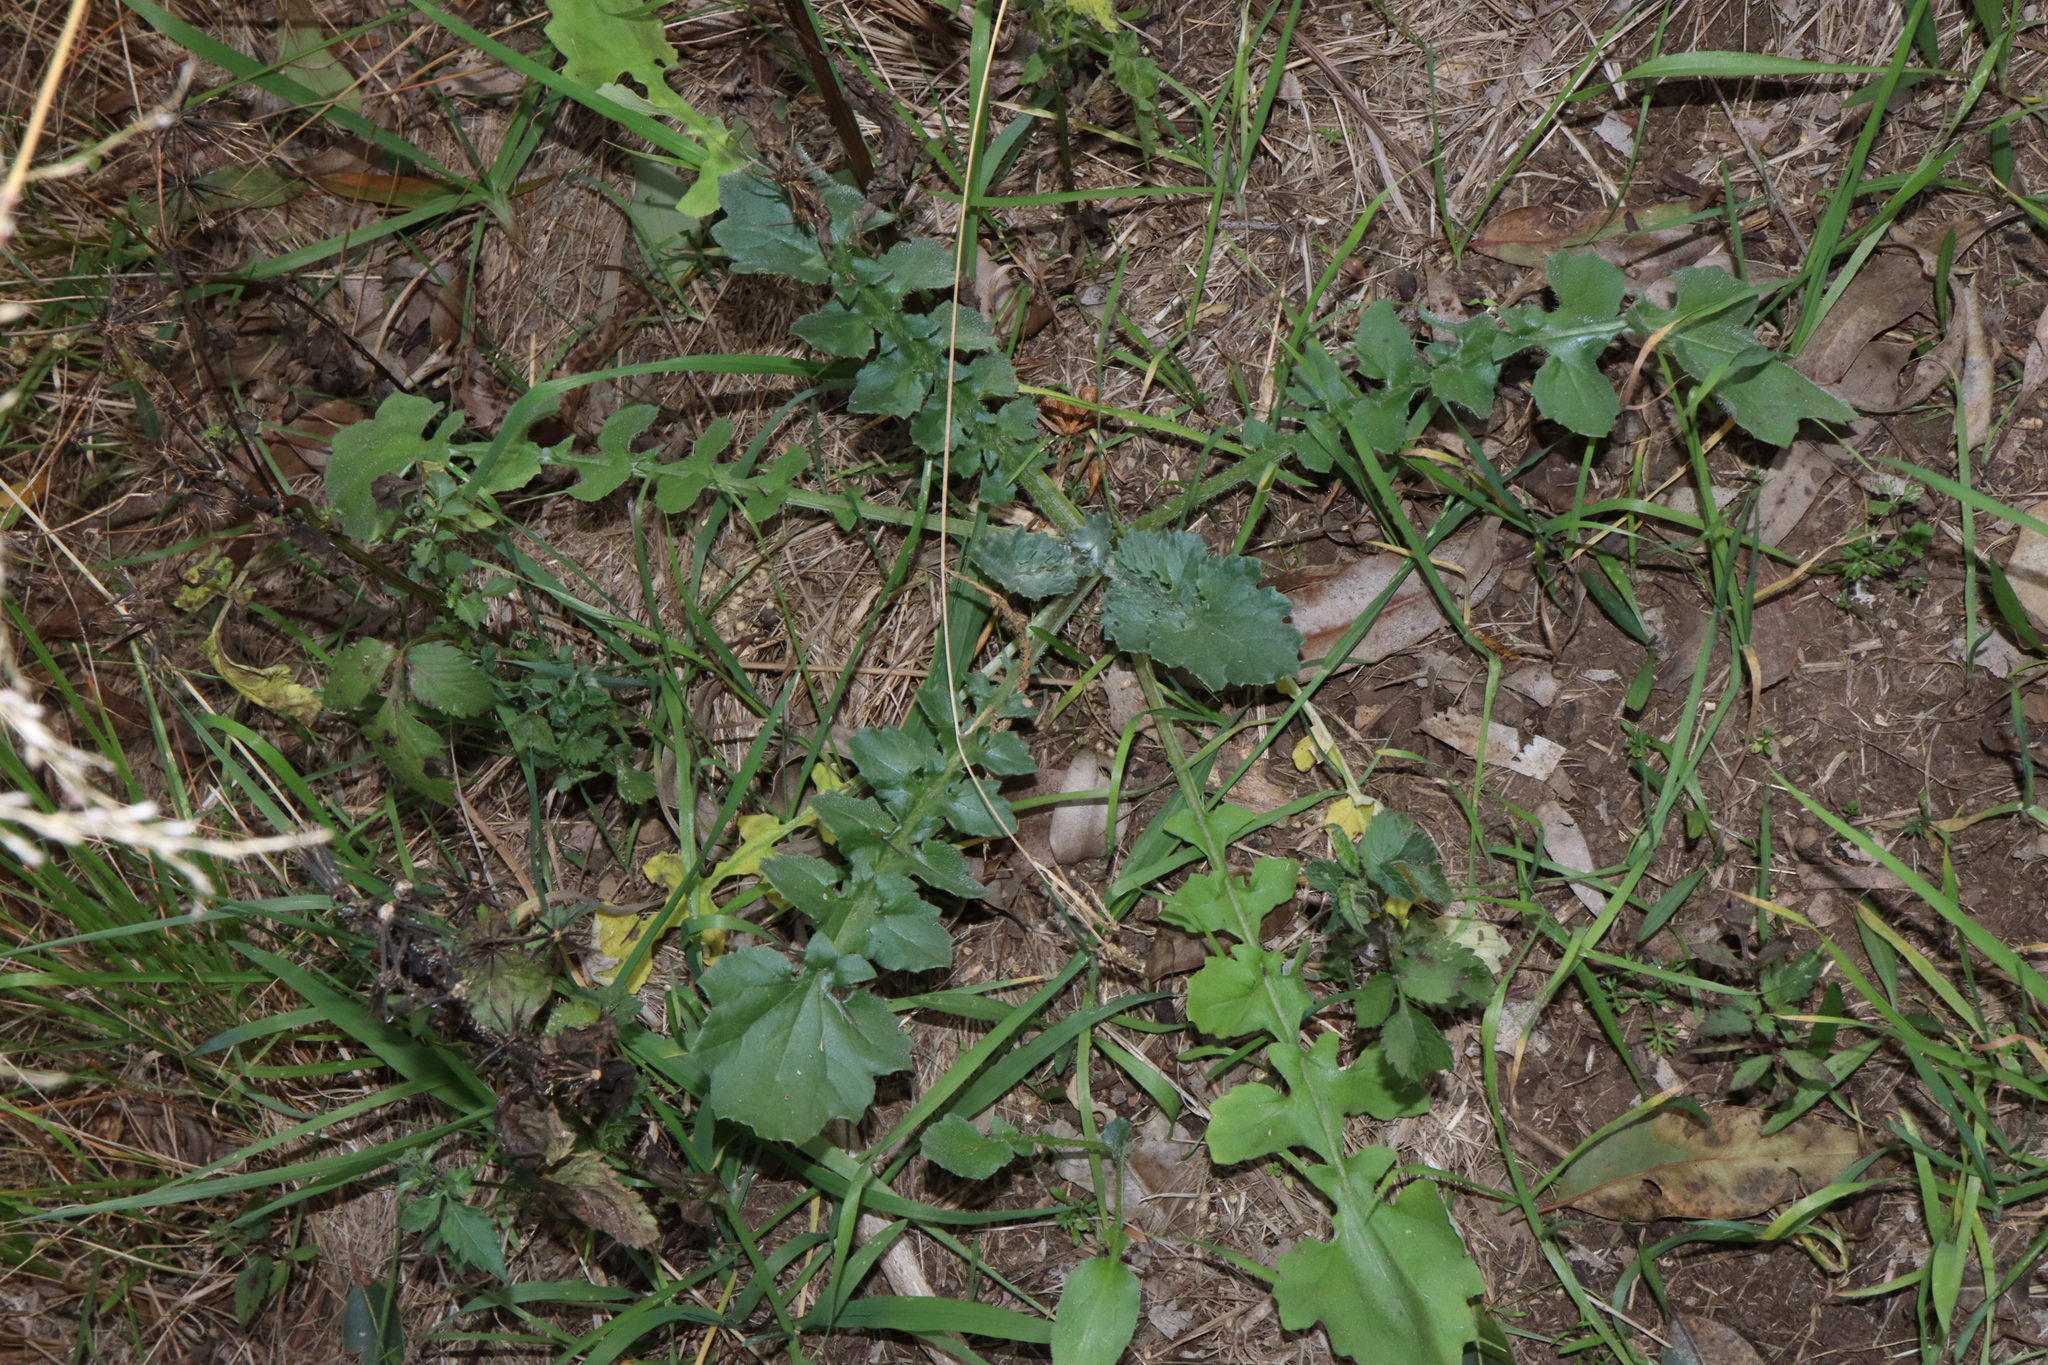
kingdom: Plantae
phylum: Tracheophyta
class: Magnoliopsida
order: Asterales
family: Asteraceae
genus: Arctotheca
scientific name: Arctotheca calendula
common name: Capeweed
